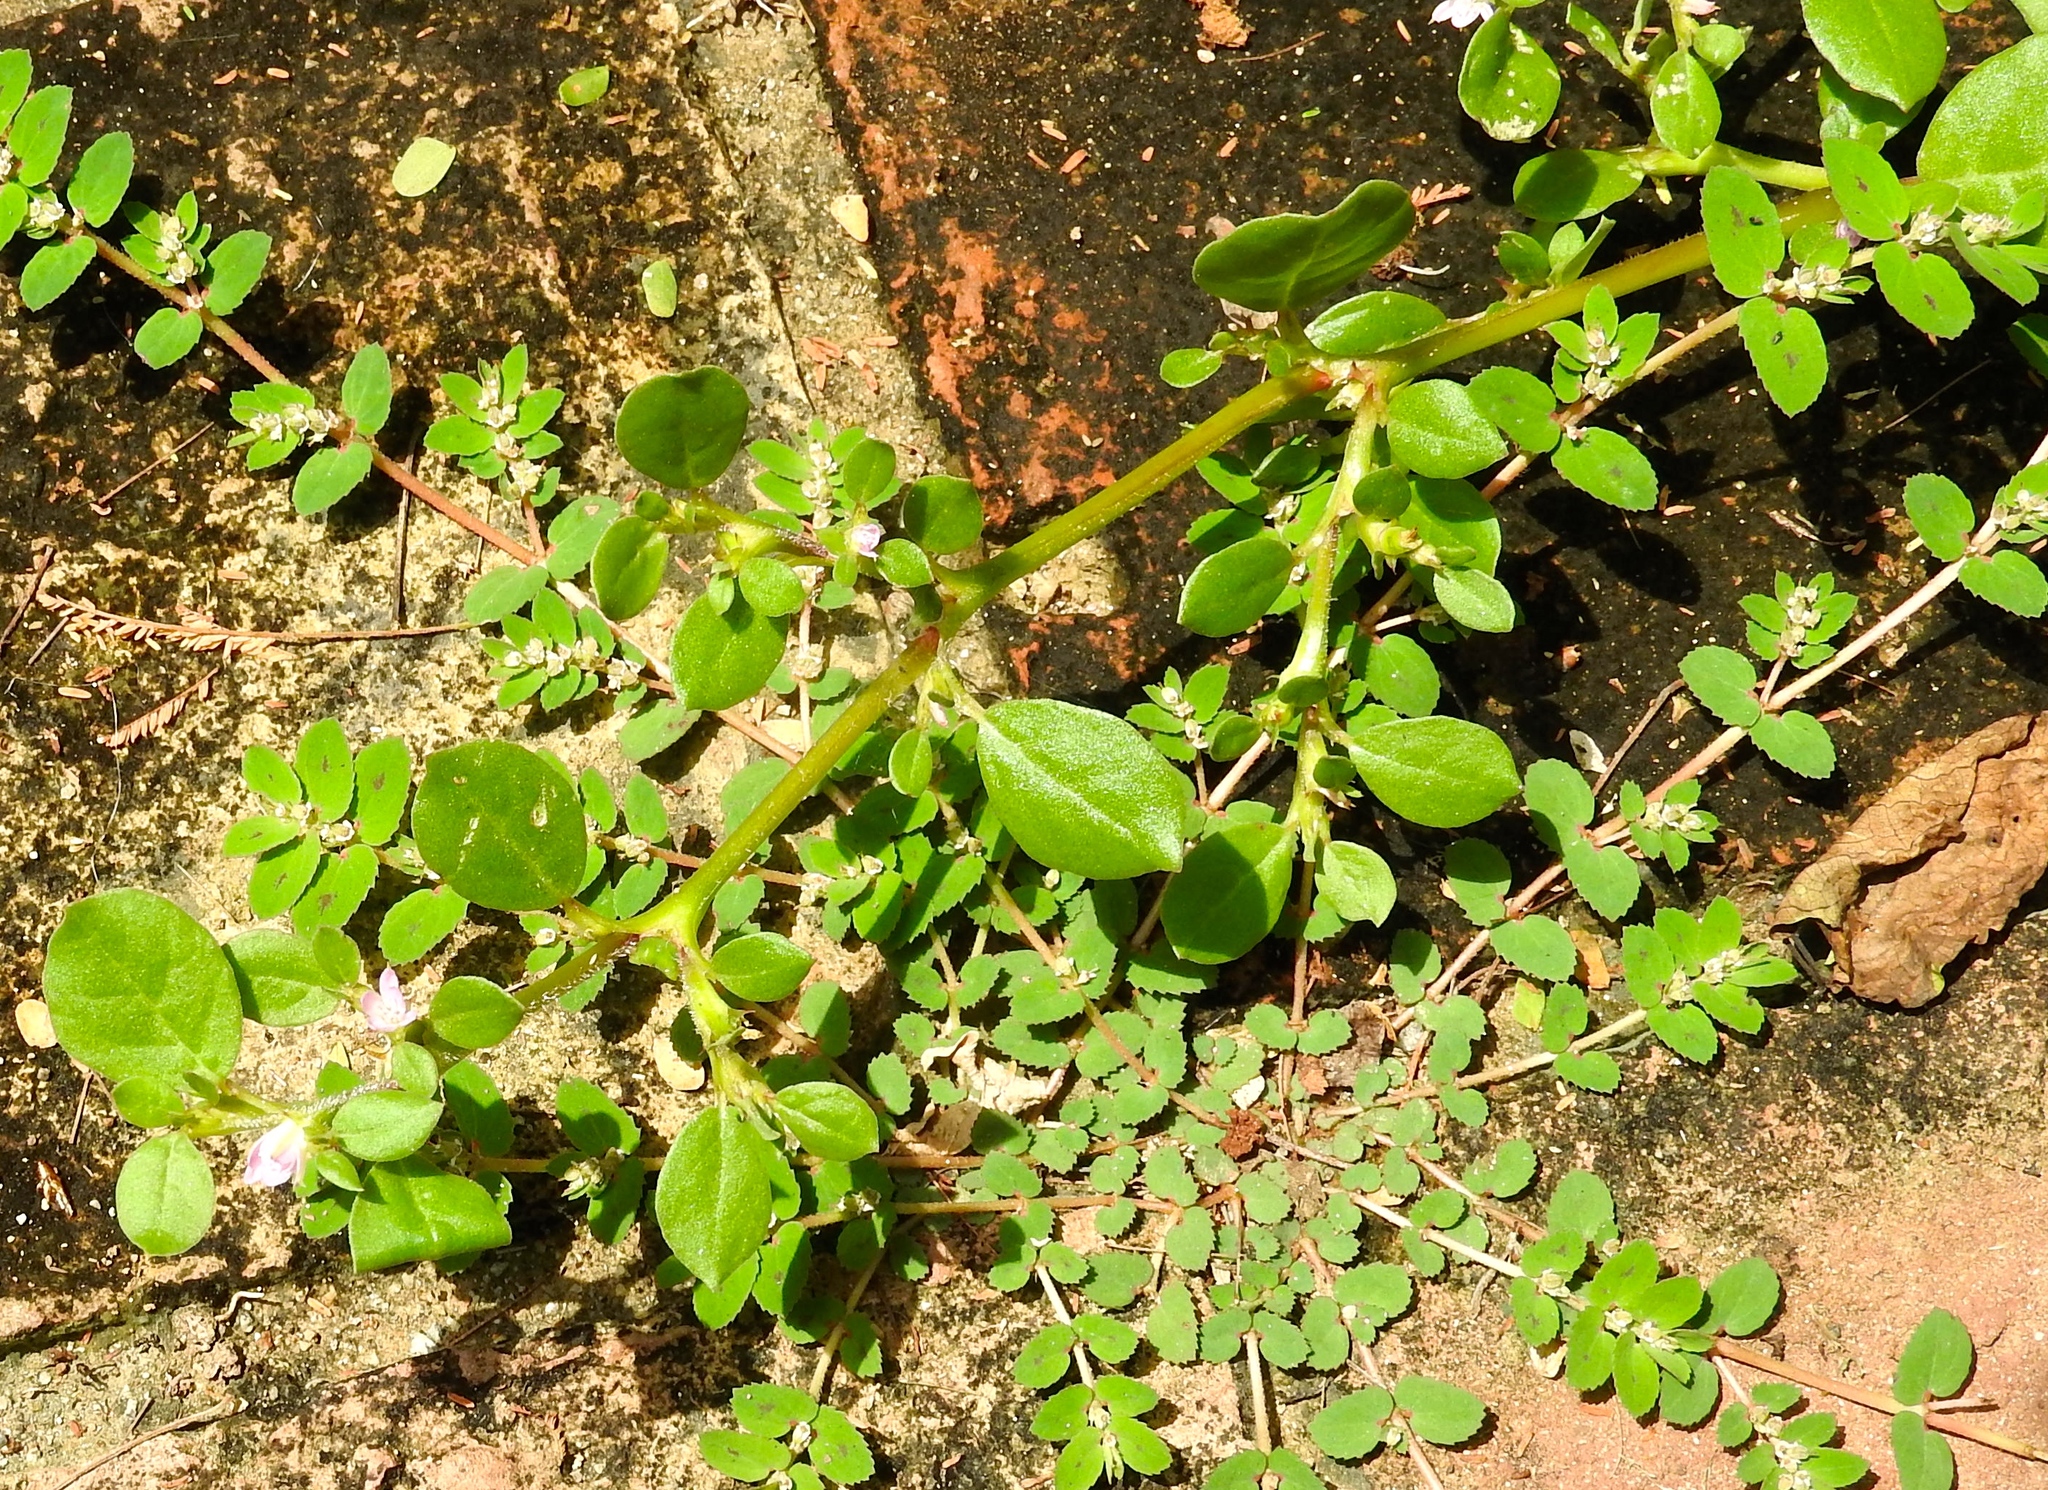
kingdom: Plantae
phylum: Tracheophyta
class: Magnoliopsida
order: Caryophyllales
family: Aizoaceae
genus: Trianthema
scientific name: Trianthema portulacastrum
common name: Desert horsepurslane
